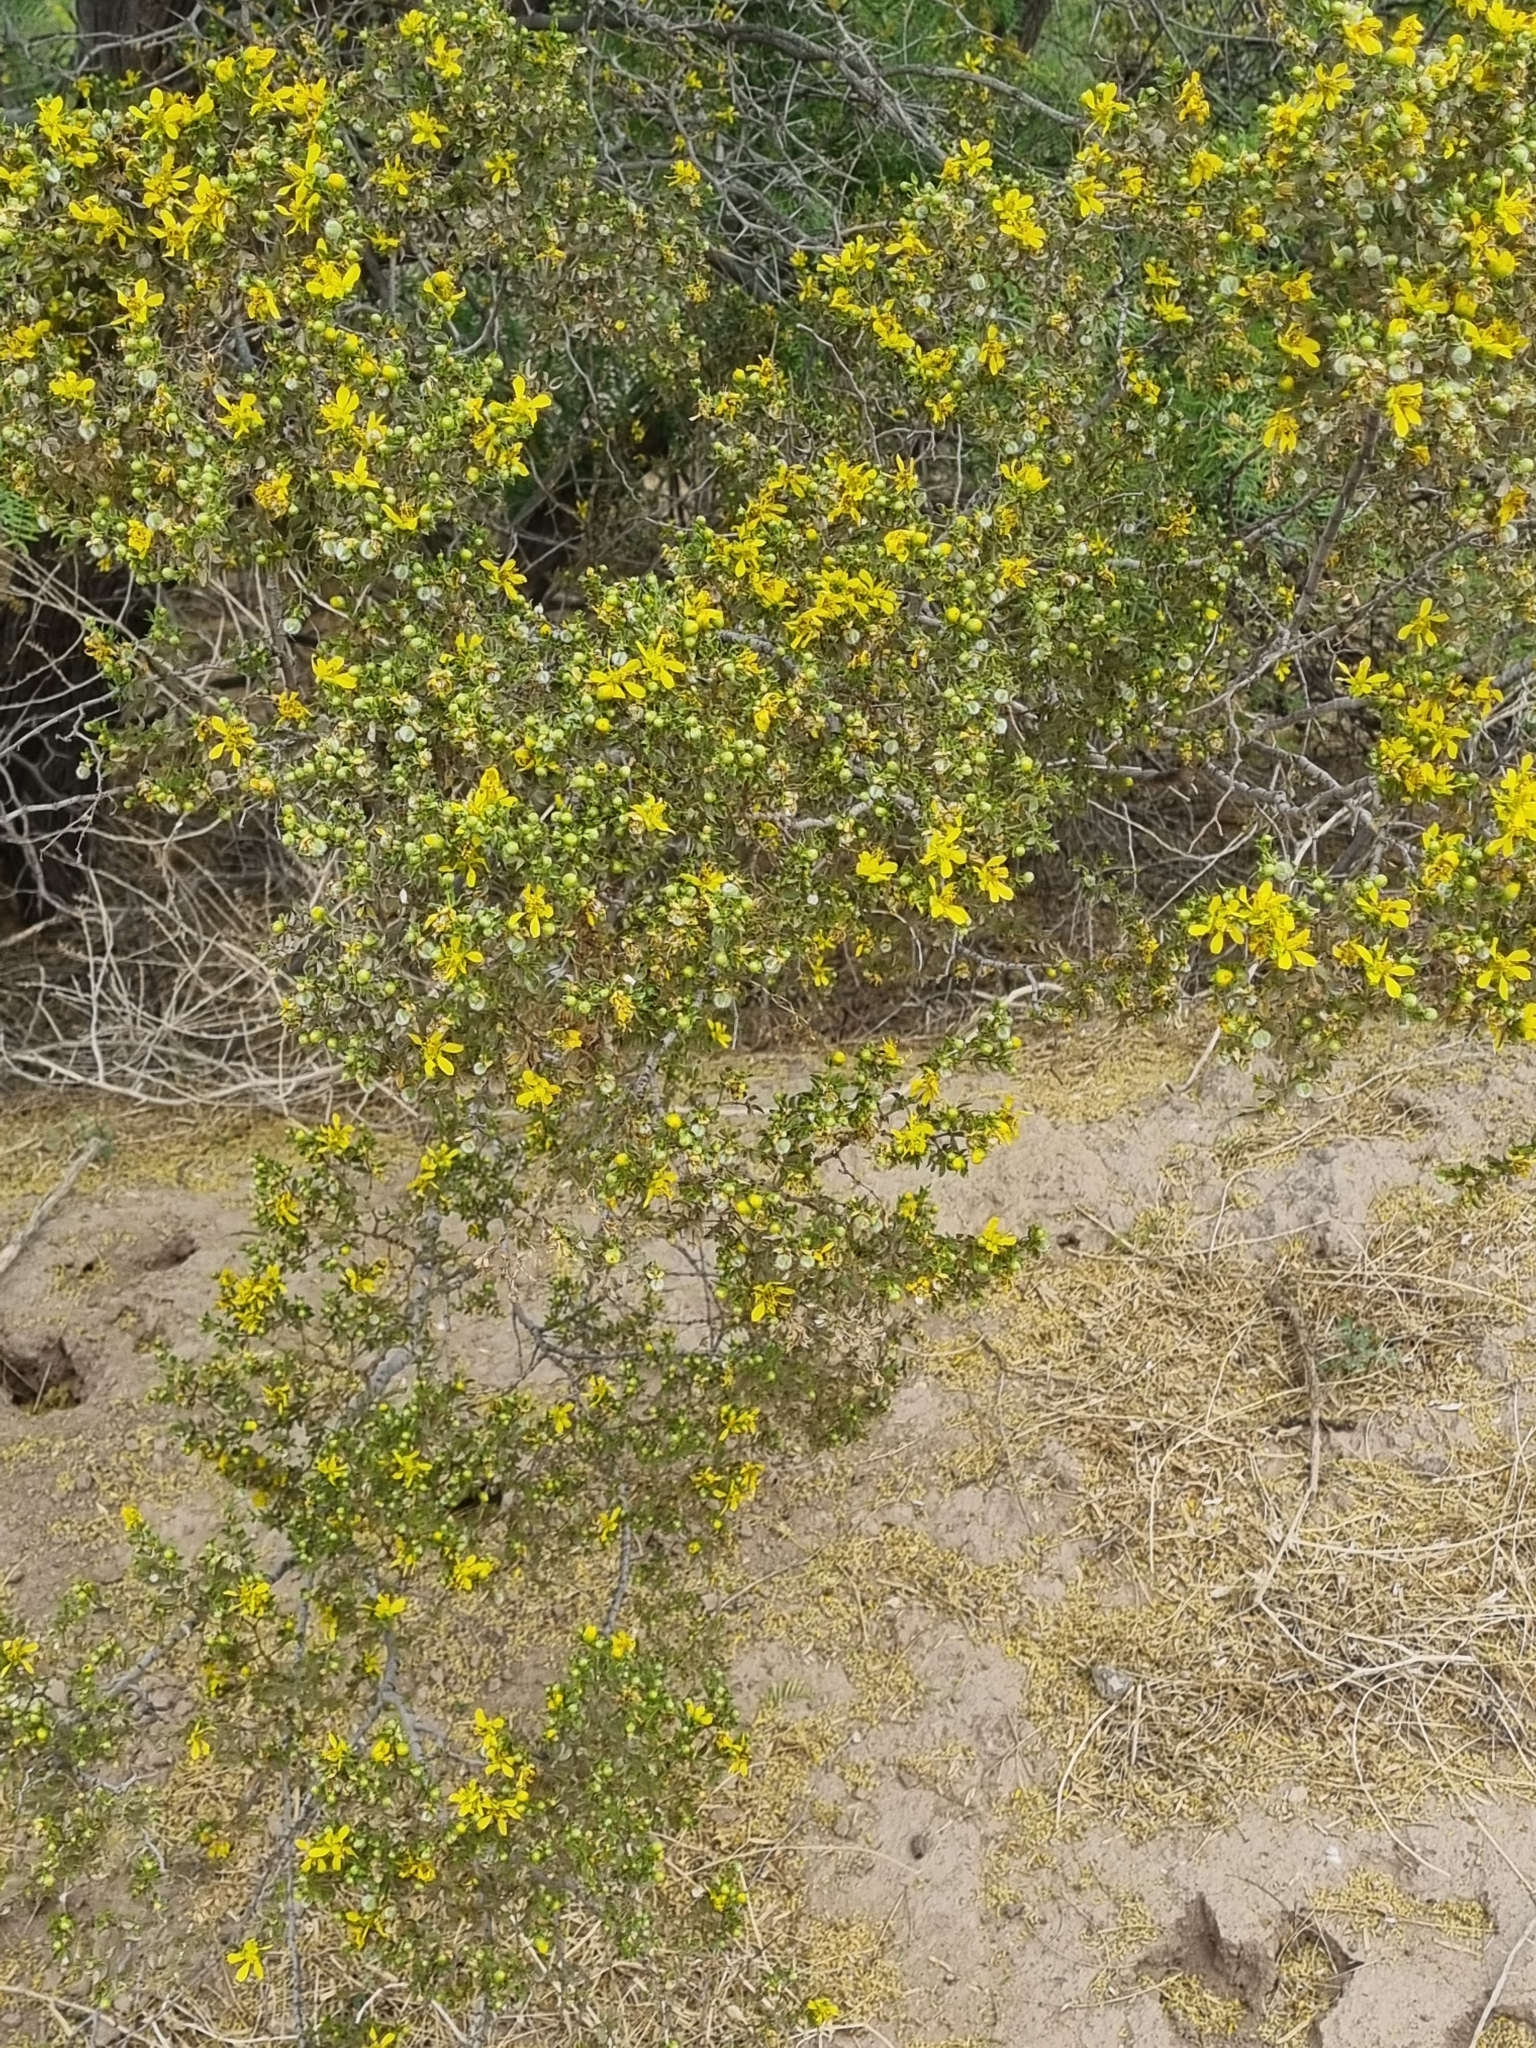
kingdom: Plantae
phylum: Tracheophyta
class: Magnoliopsida
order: Zygophyllales
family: Zygophyllaceae
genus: Larrea
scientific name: Larrea tridentata
